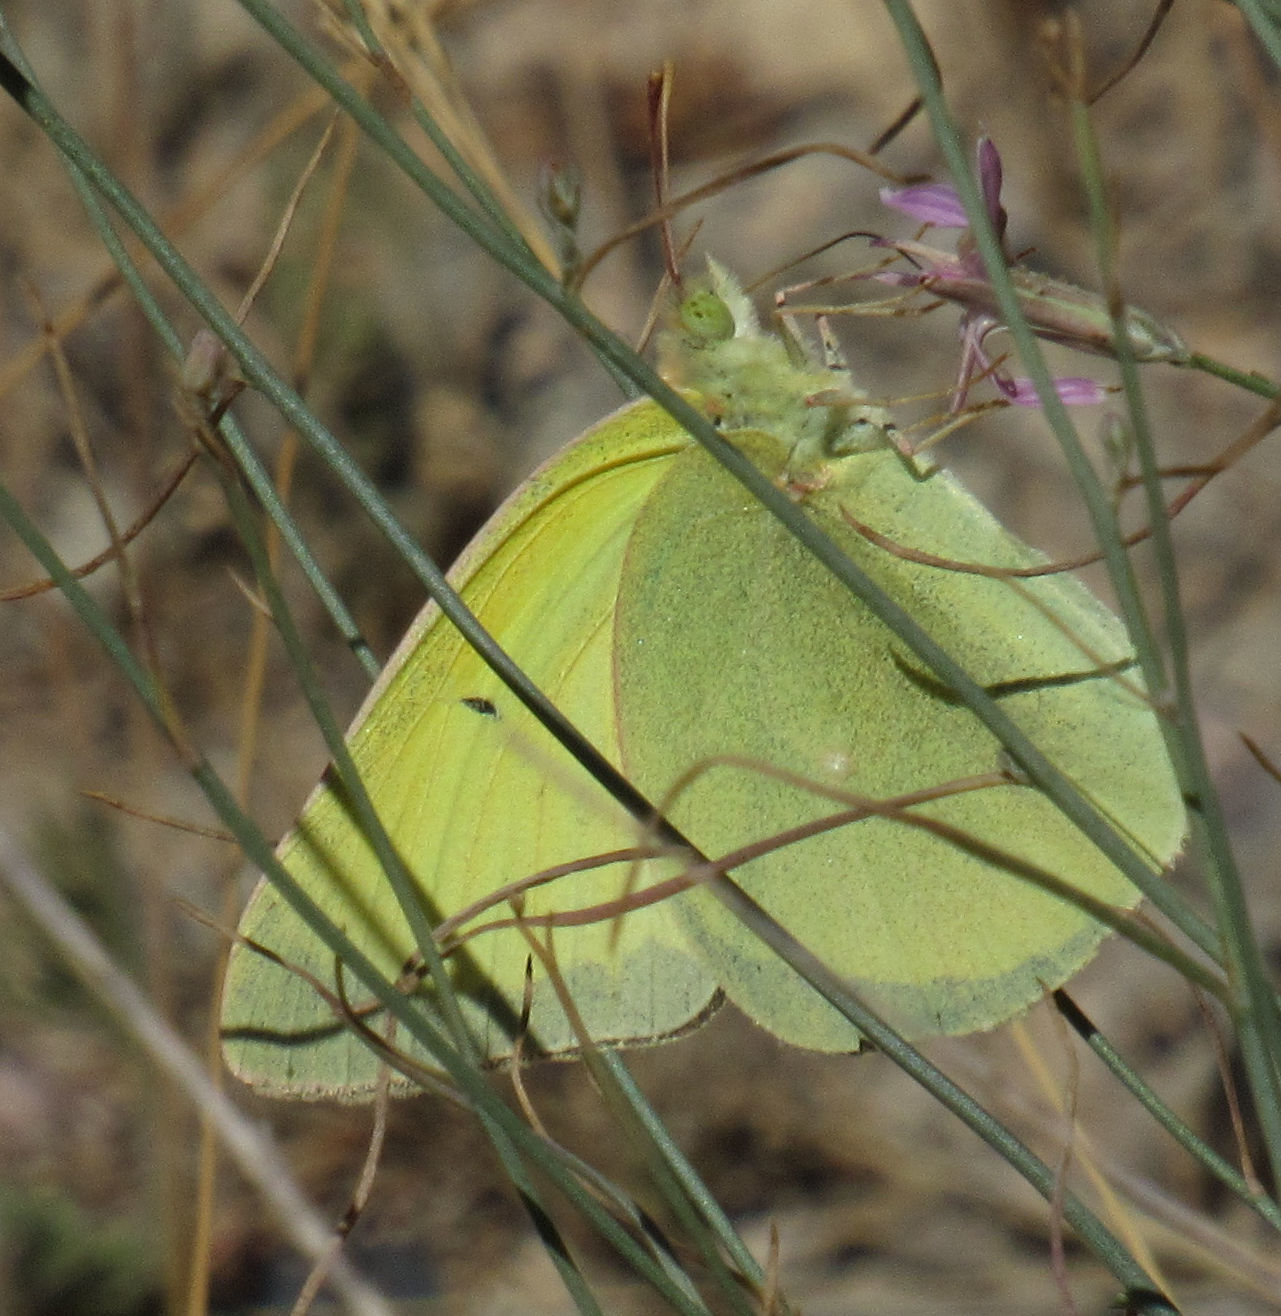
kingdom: Animalia
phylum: Arthropoda
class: Insecta
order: Lepidoptera
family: Pieridae
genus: Colias
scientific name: Colias alexandra
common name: Alexandra sulphur
